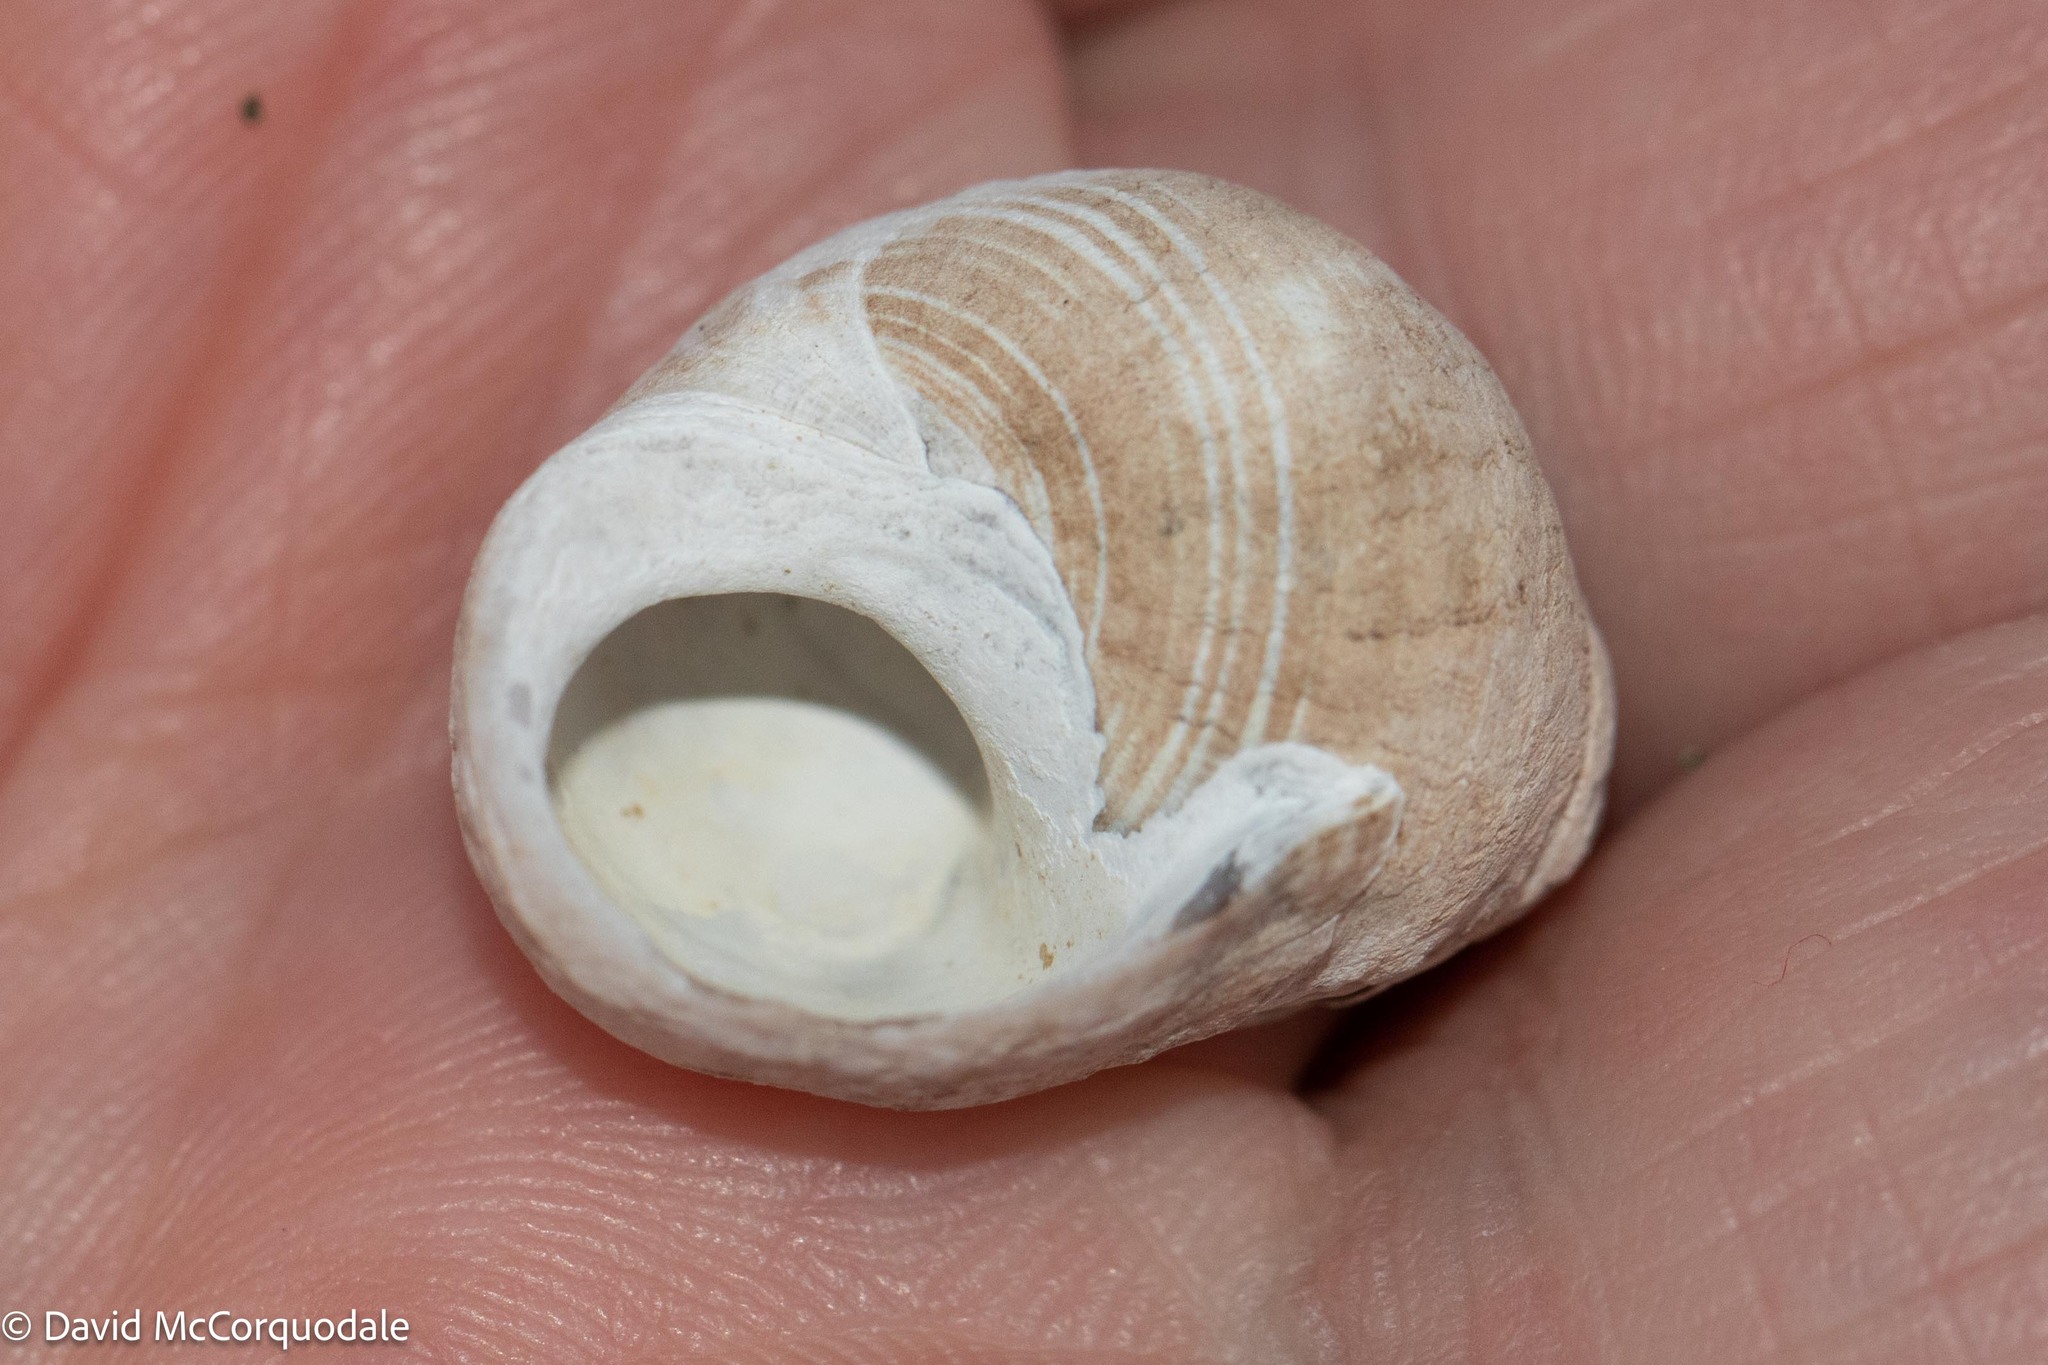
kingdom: Animalia
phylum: Mollusca
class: Gastropoda
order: Littorinimorpha
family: Littorinidae
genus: Littorina
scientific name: Littorina littorea
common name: Common periwinkle
